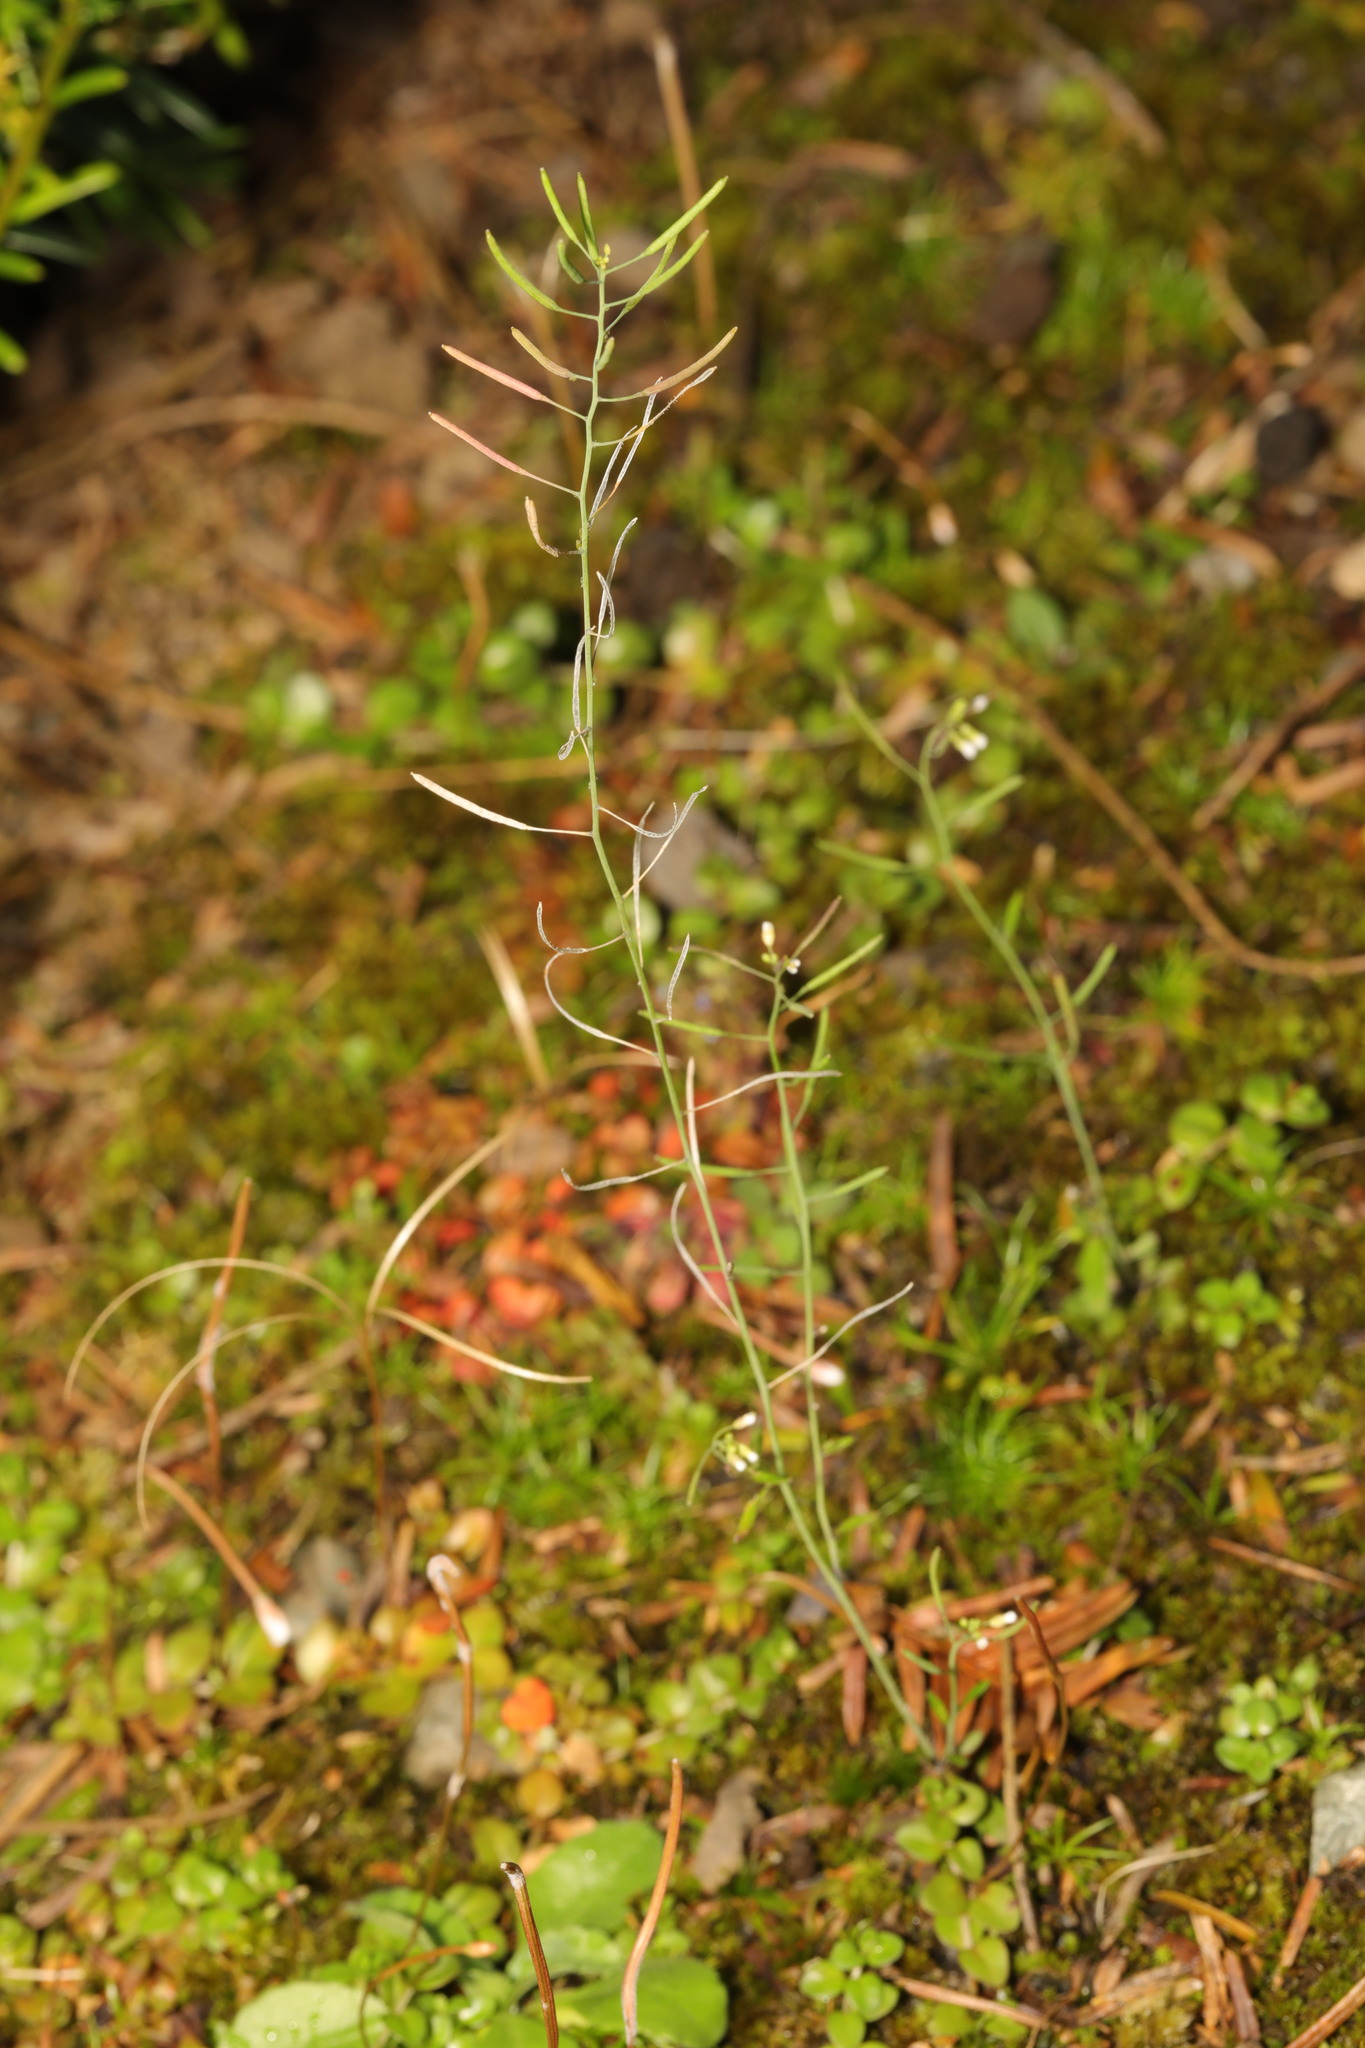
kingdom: Plantae
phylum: Tracheophyta
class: Magnoliopsida
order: Brassicales
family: Brassicaceae
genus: Arabidopsis
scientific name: Arabidopsis thaliana
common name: Thale cress
